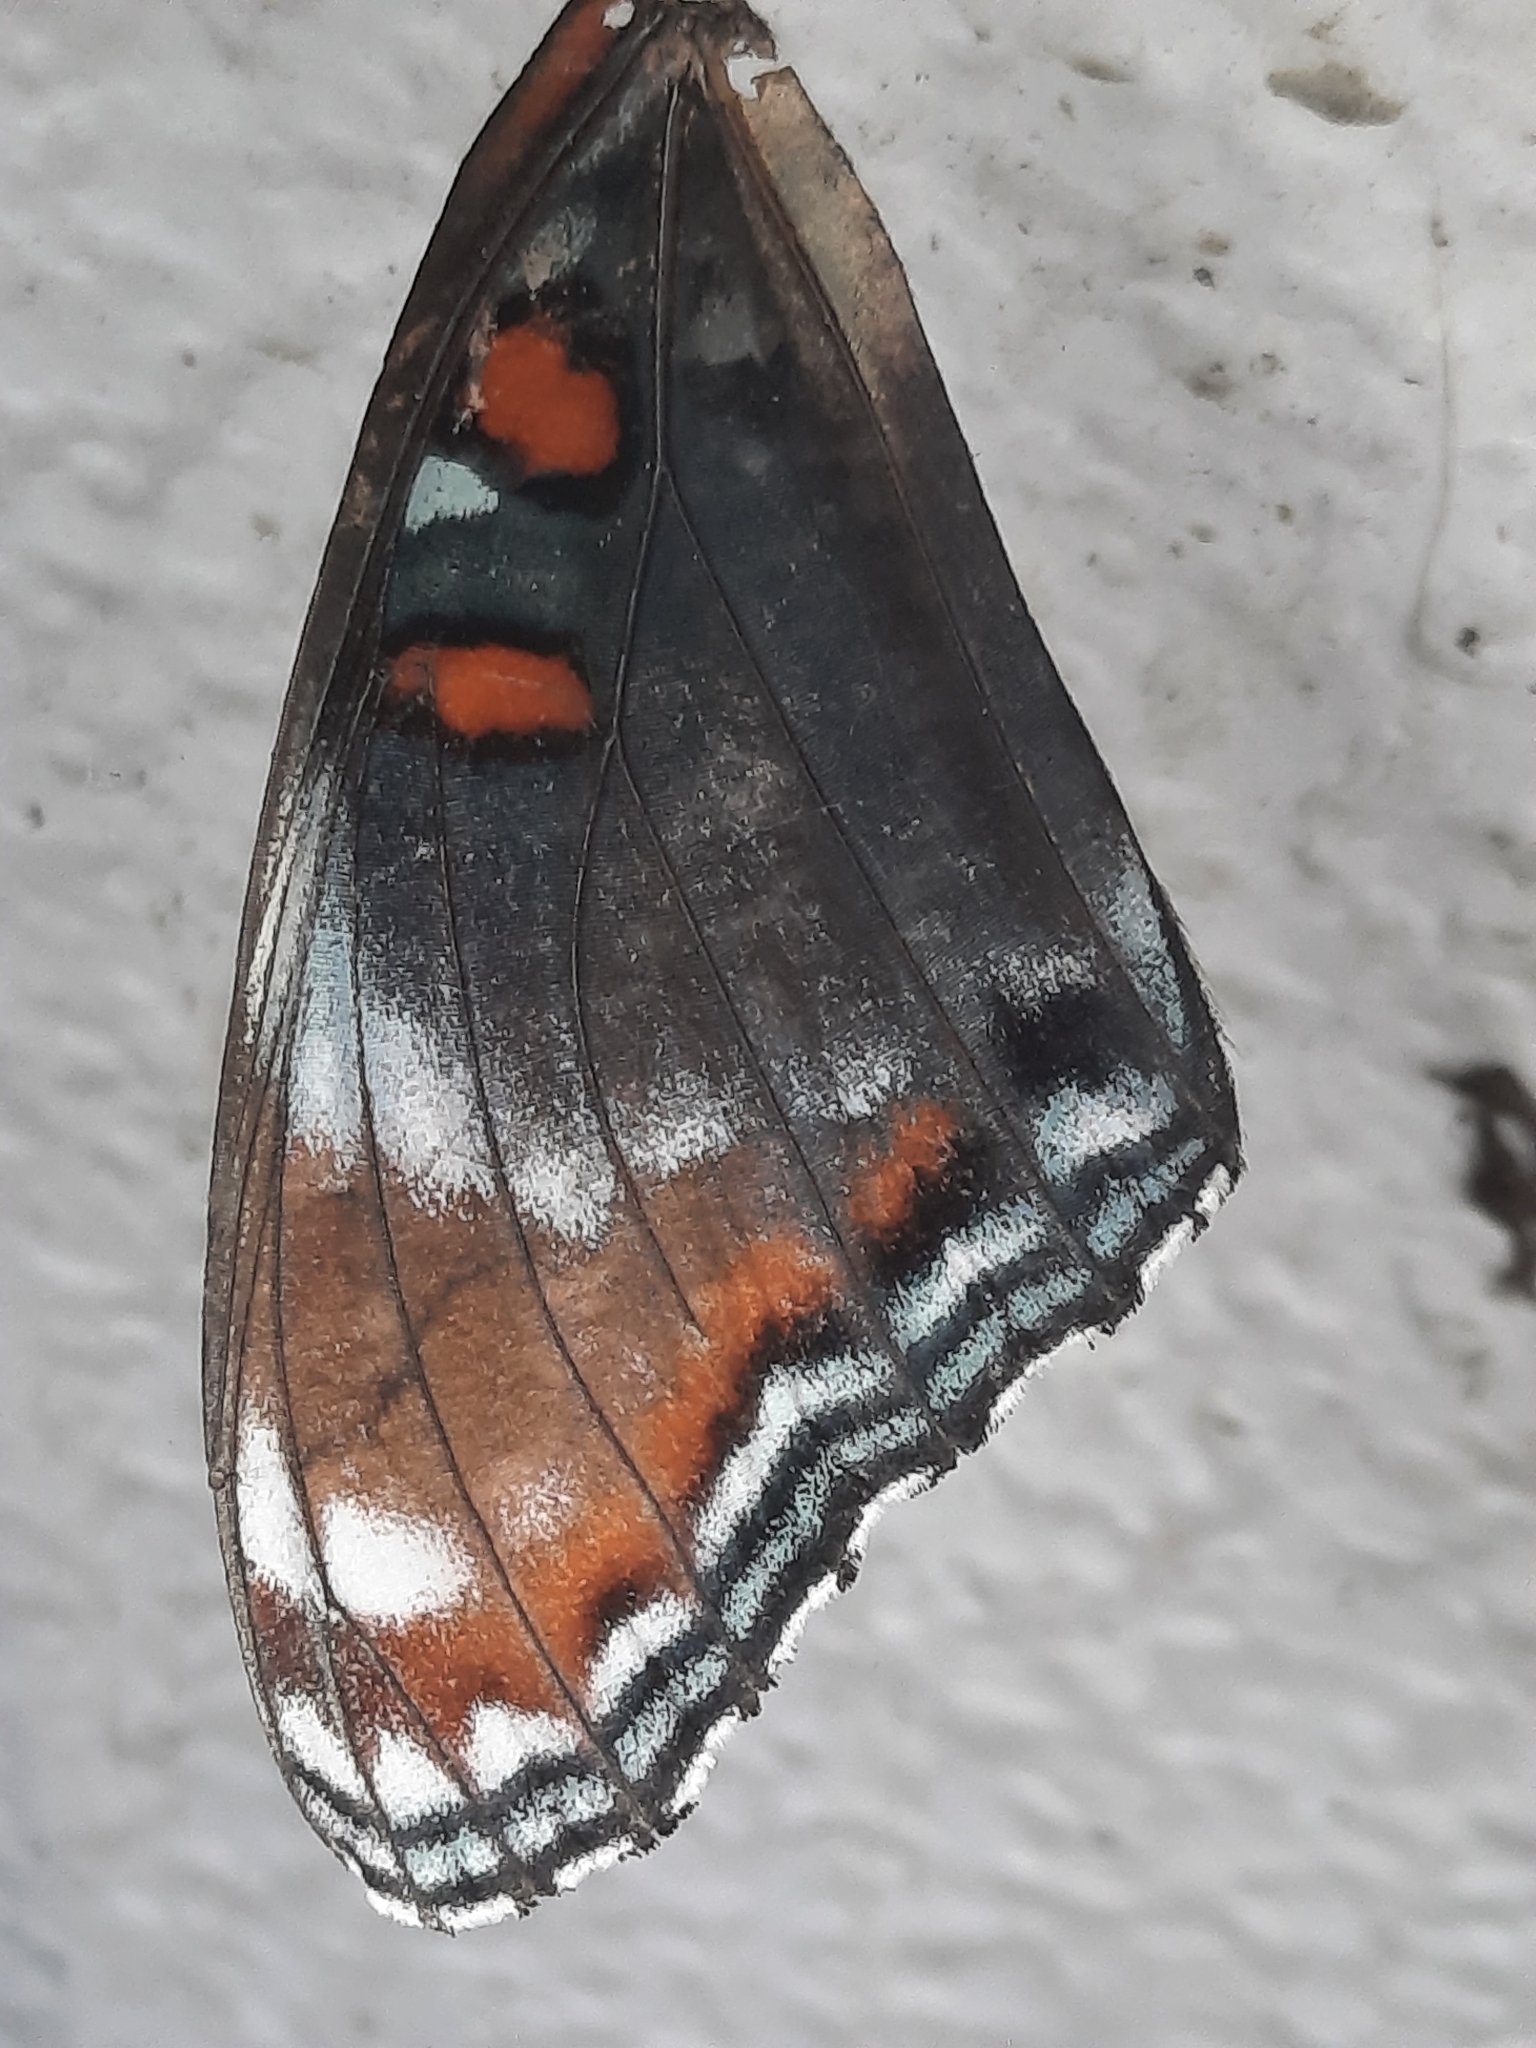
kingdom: Animalia
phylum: Arthropoda
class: Insecta
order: Lepidoptera
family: Nymphalidae
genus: Limenitis
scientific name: Limenitis
